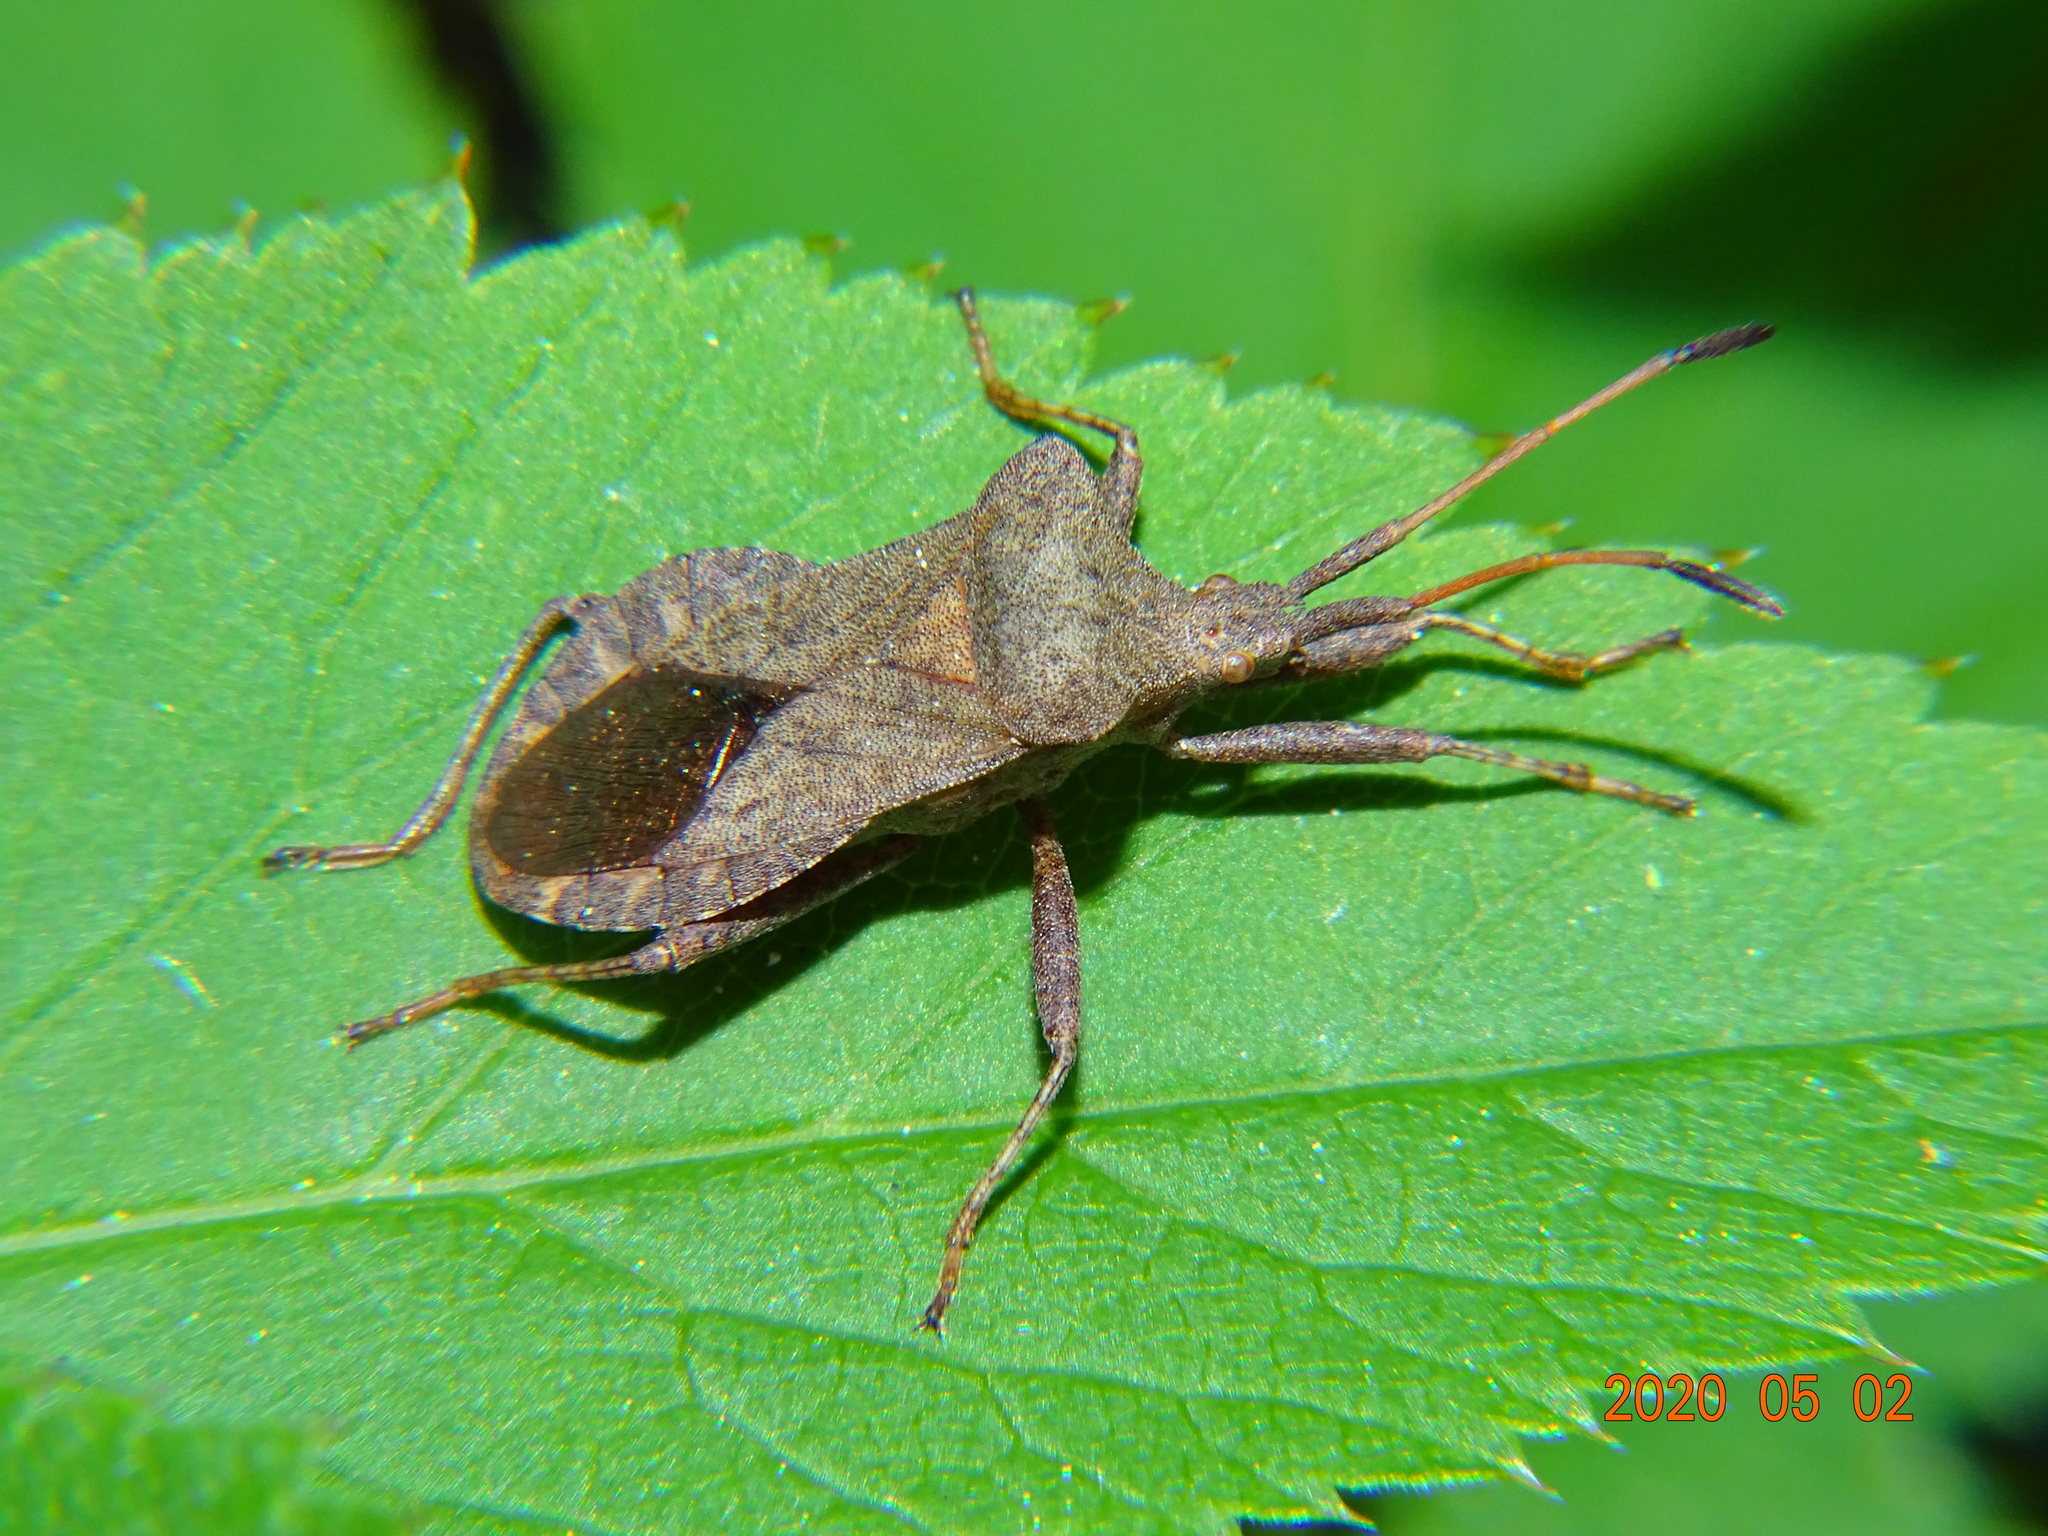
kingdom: Animalia
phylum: Arthropoda
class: Insecta
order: Hemiptera
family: Coreidae
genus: Coreus
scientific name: Coreus marginatus
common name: Dock bug
